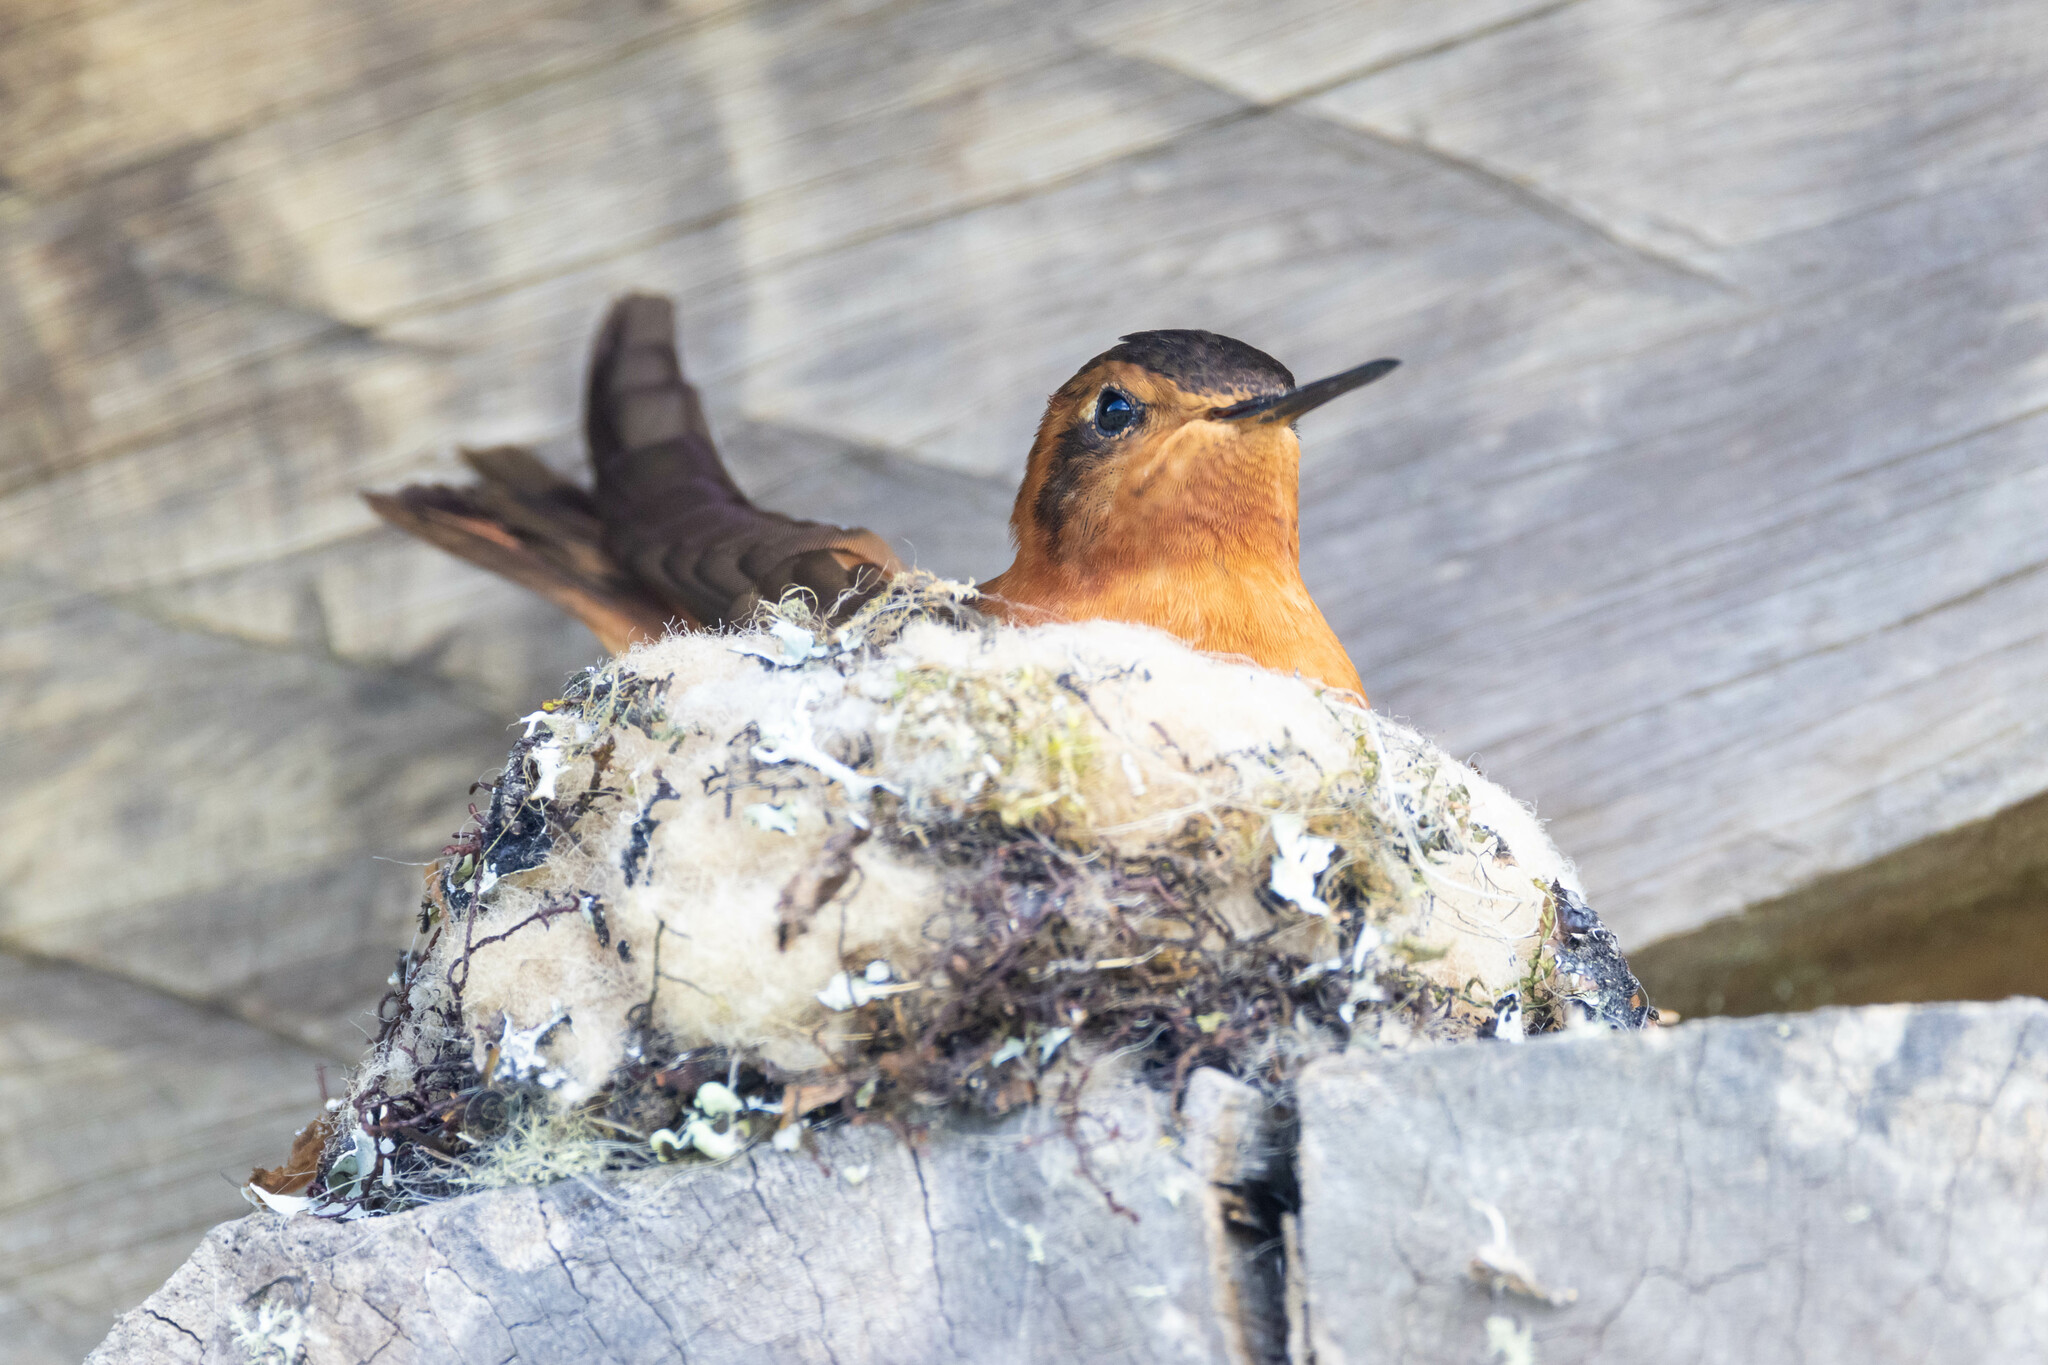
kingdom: Animalia
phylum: Chordata
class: Aves
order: Apodiformes
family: Trochilidae
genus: Aglaeactis
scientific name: Aglaeactis cupripennis
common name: Shining sunbeam
